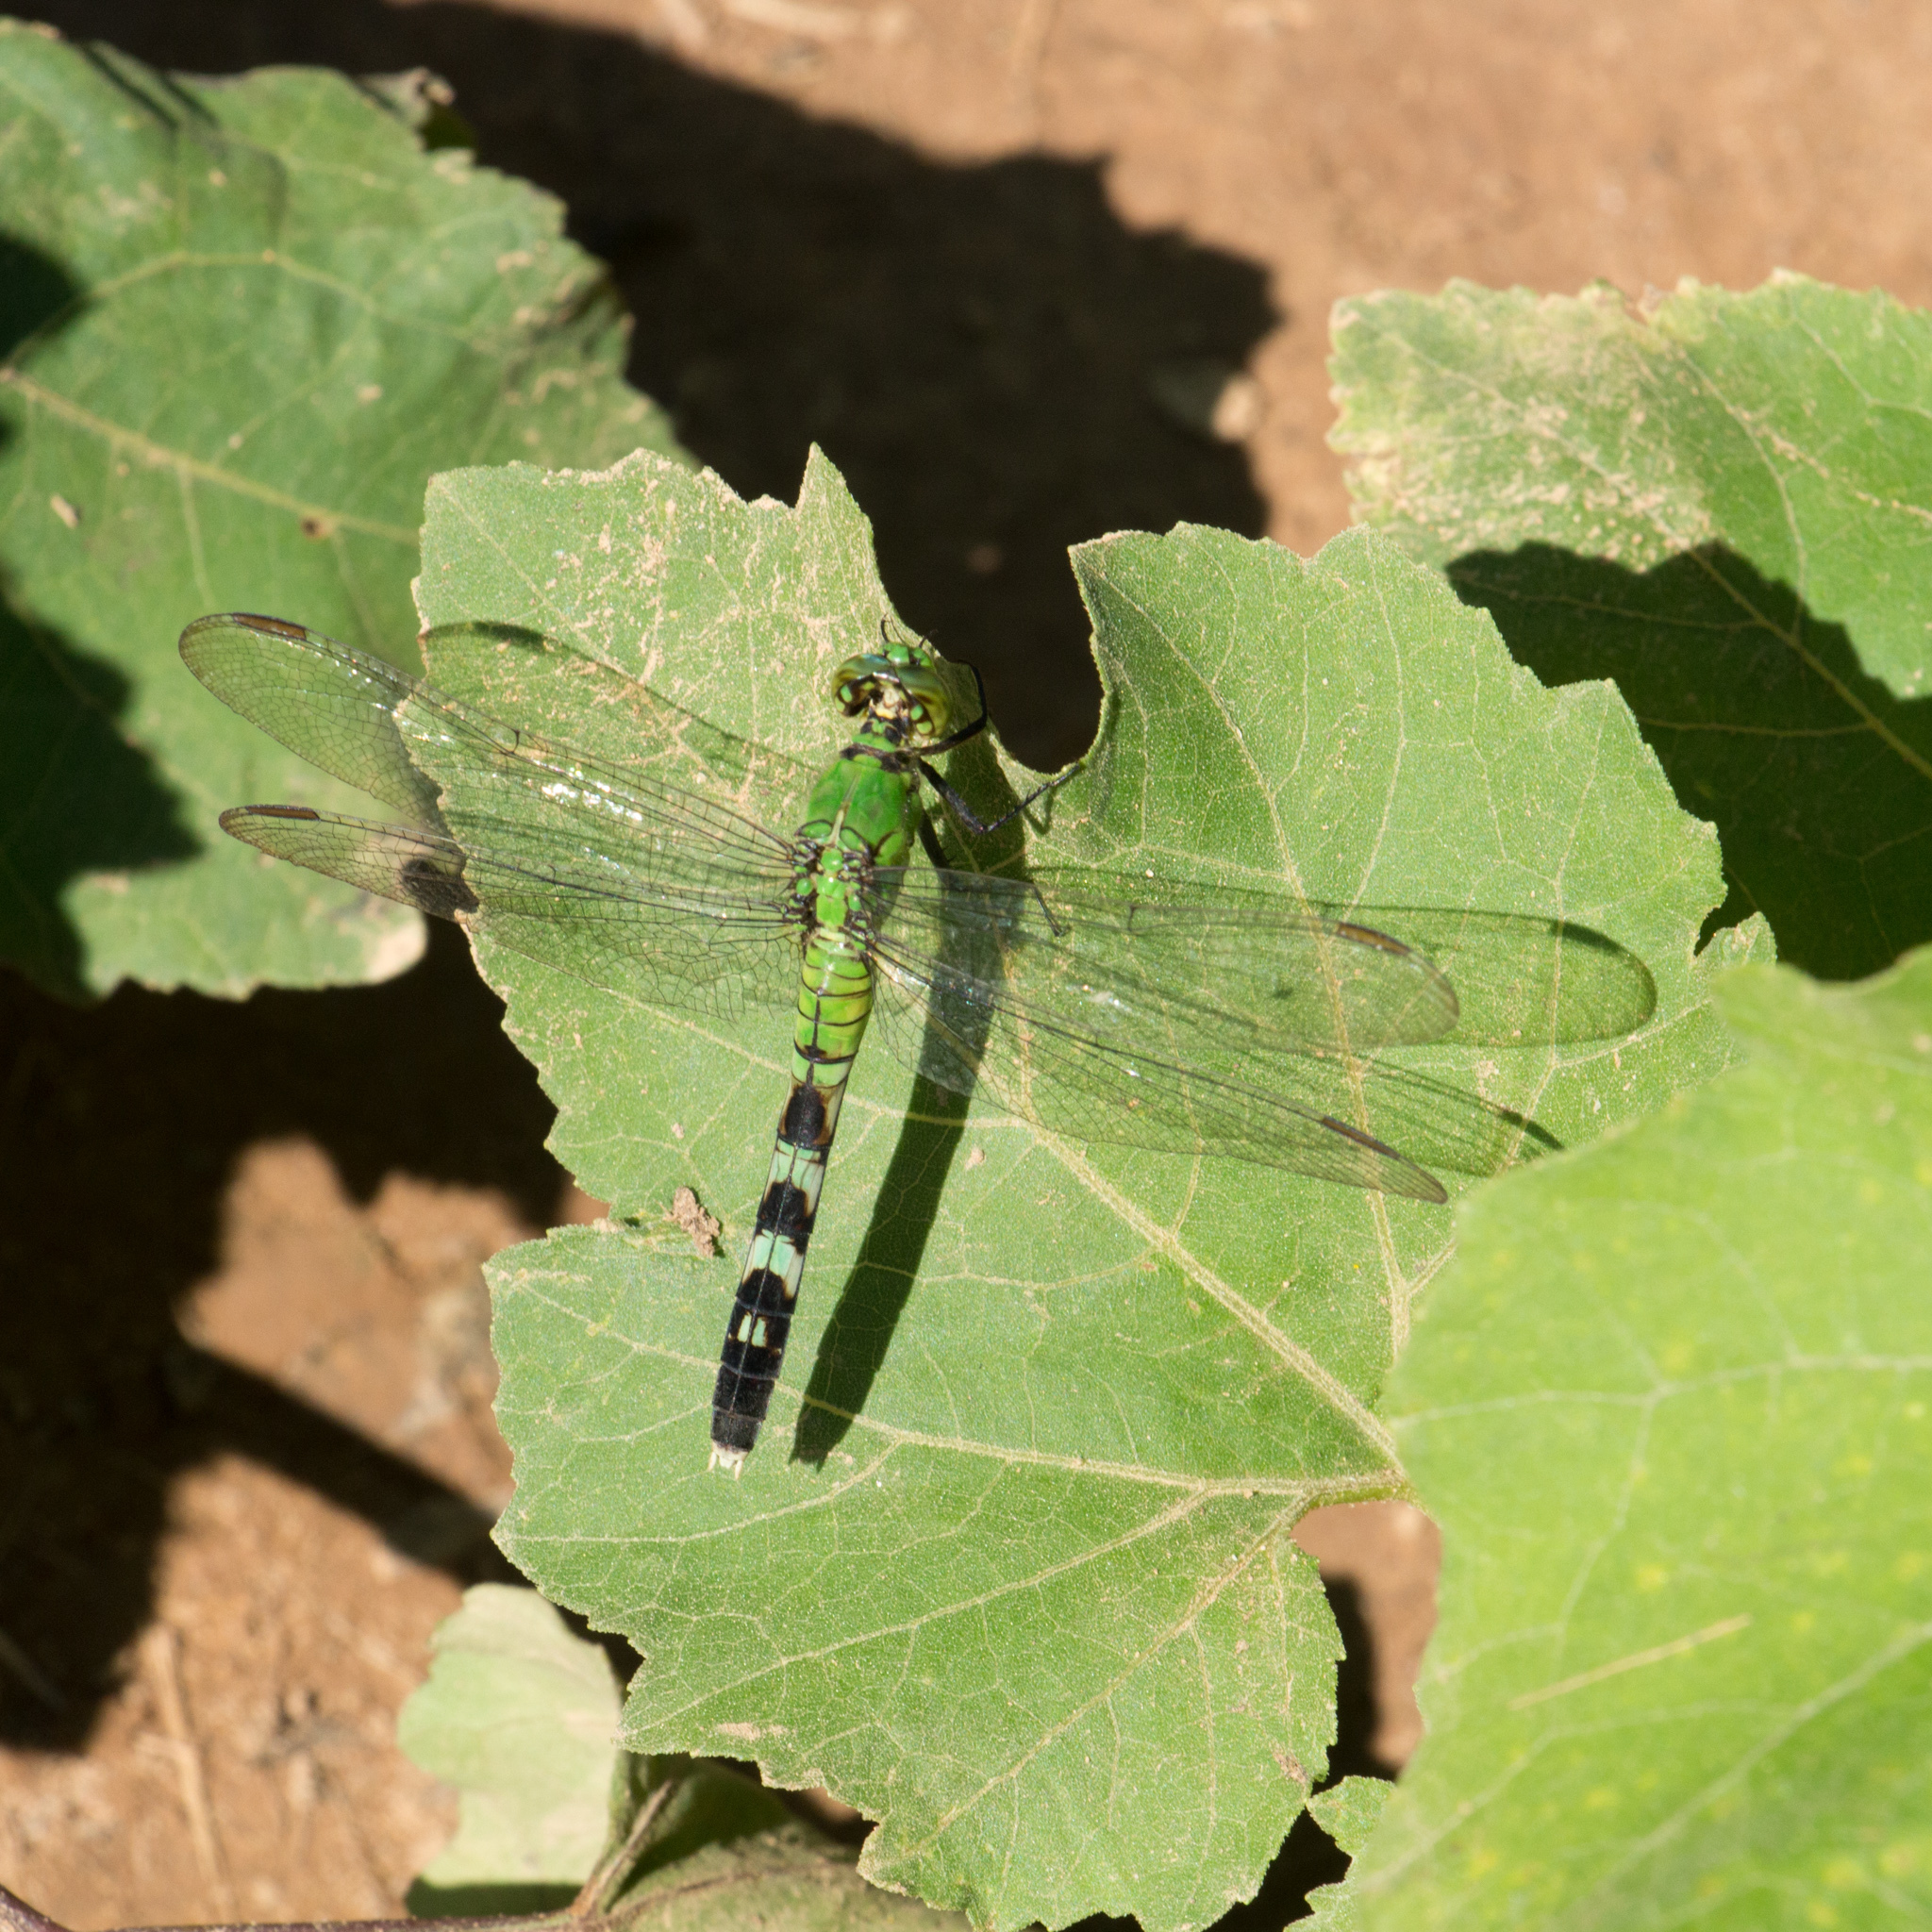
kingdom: Animalia
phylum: Arthropoda
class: Insecta
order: Odonata
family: Libellulidae
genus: Erythemis
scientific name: Erythemis simplicicollis
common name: Eastern pondhawk
